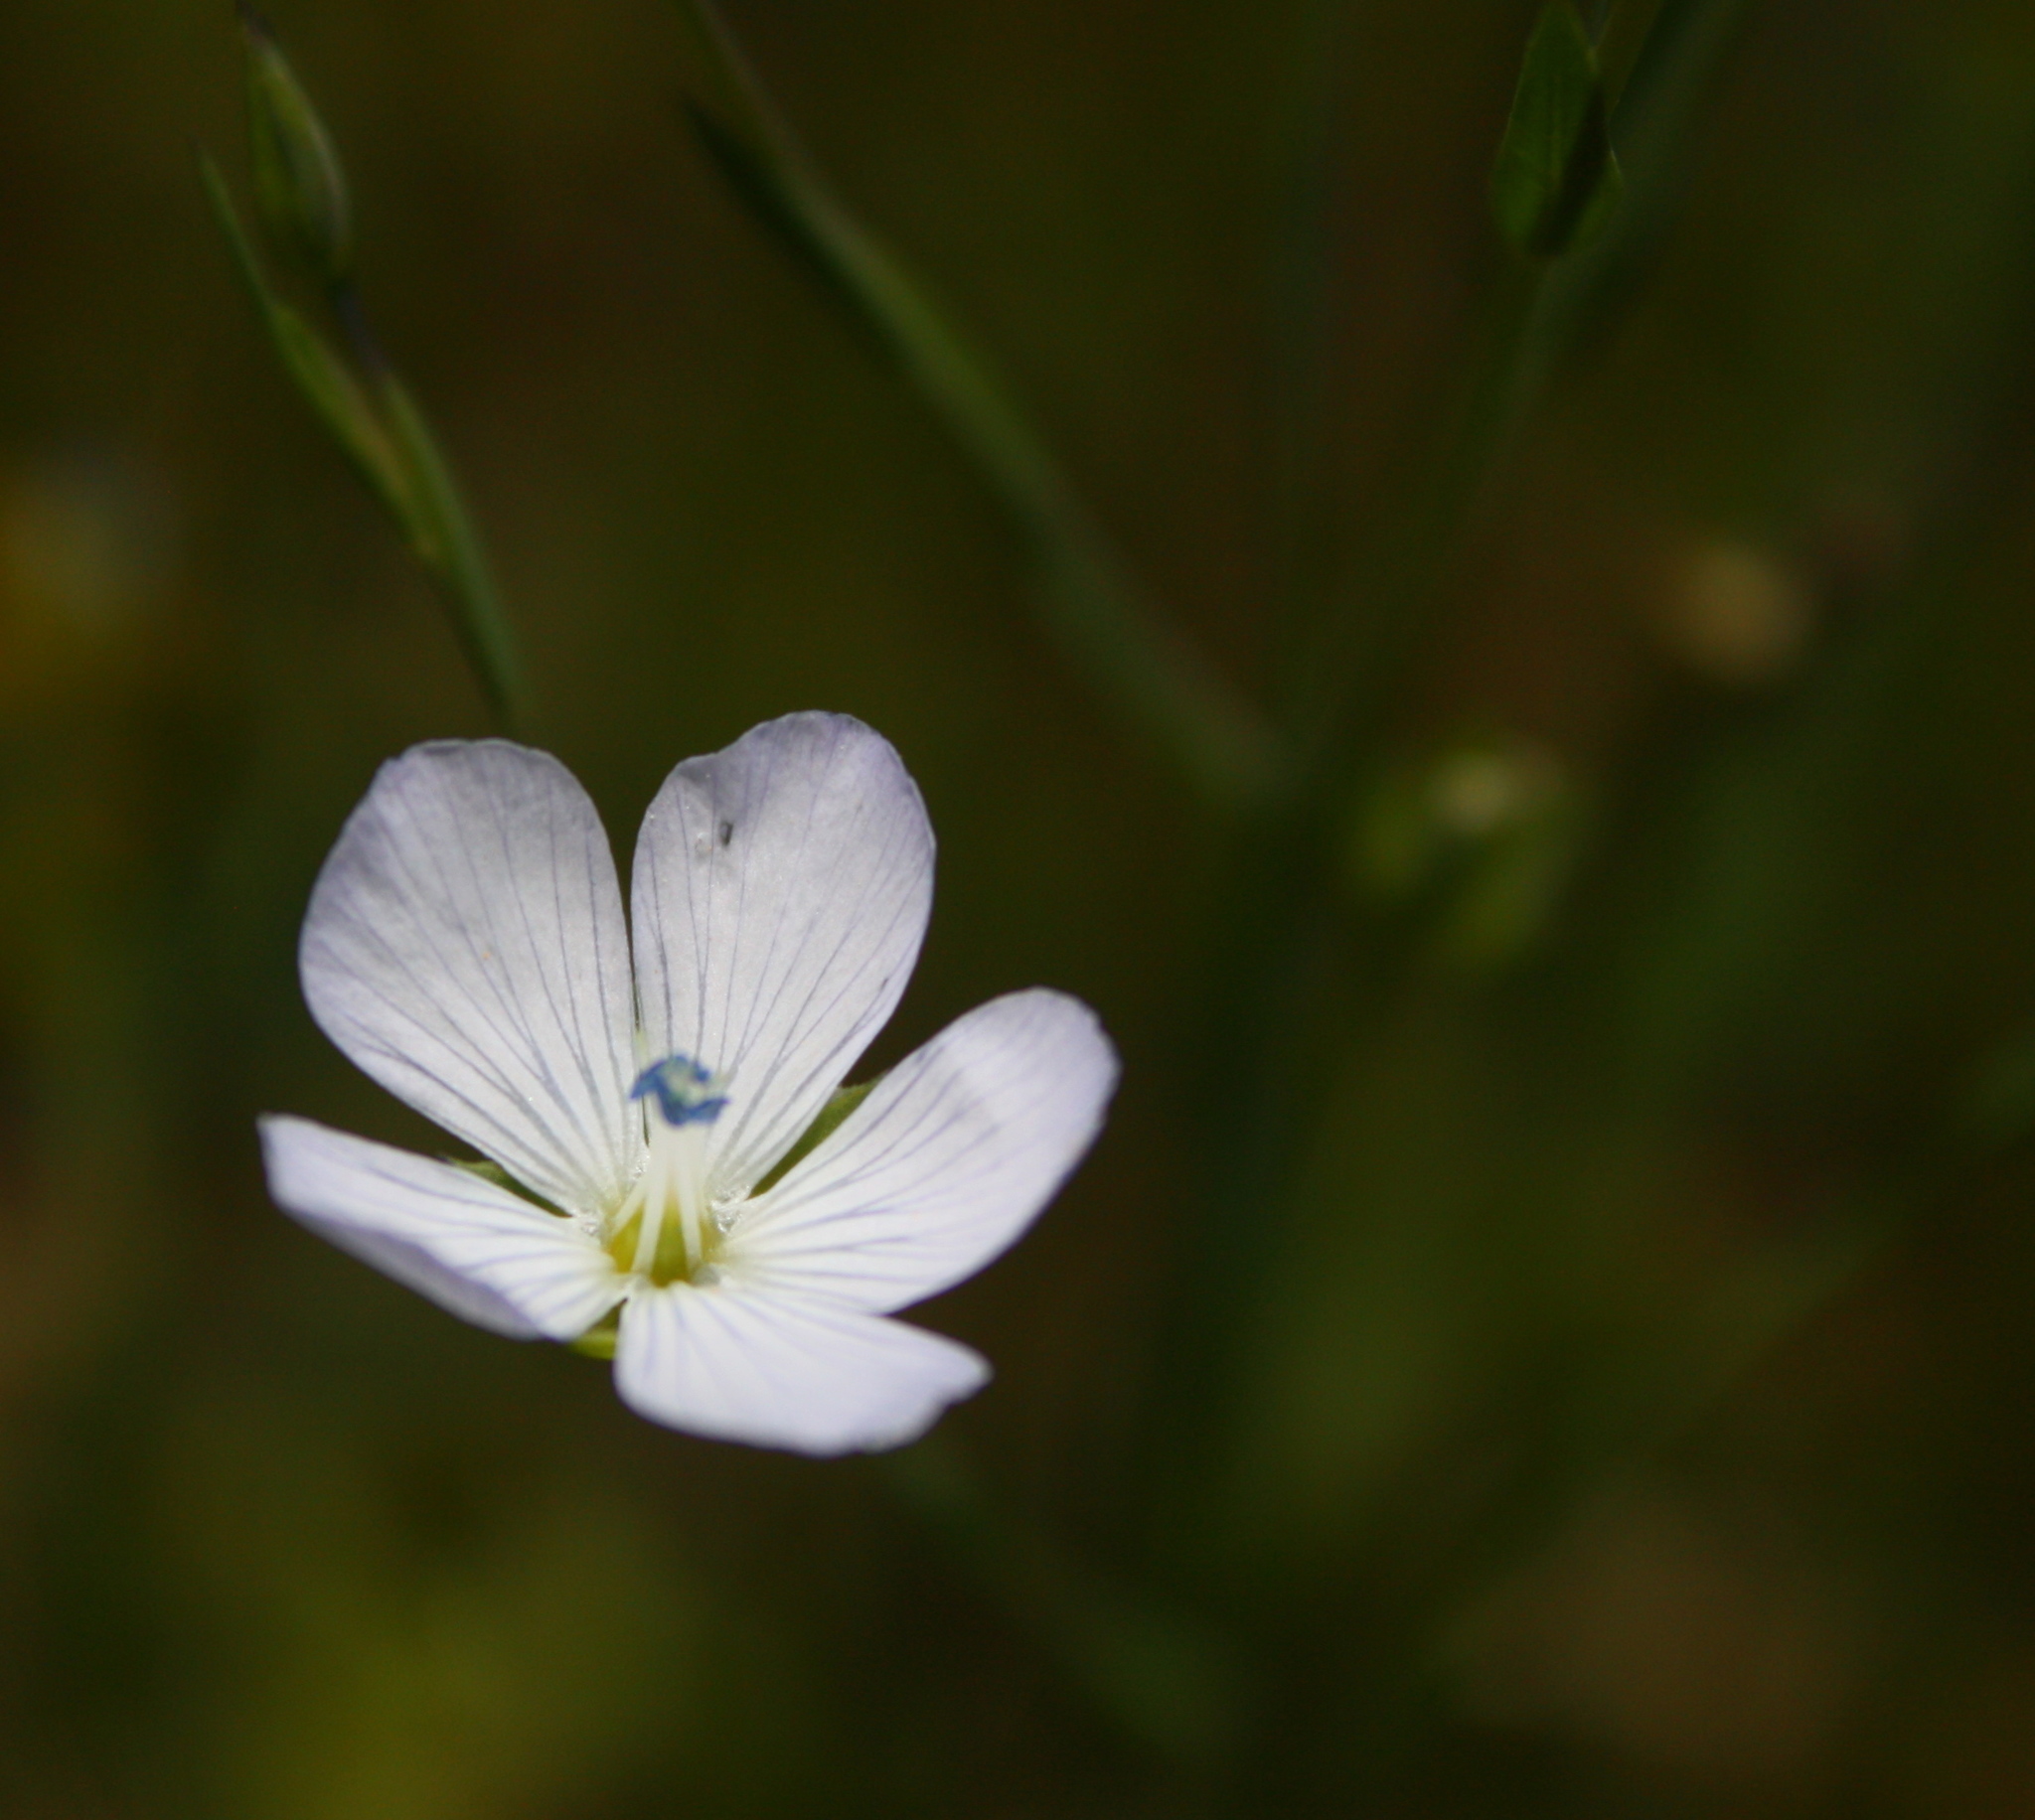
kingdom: Plantae
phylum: Tracheophyta
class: Magnoliopsida
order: Malpighiales
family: Linaceae
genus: Linum
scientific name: Linum bienne
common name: Pale flax
